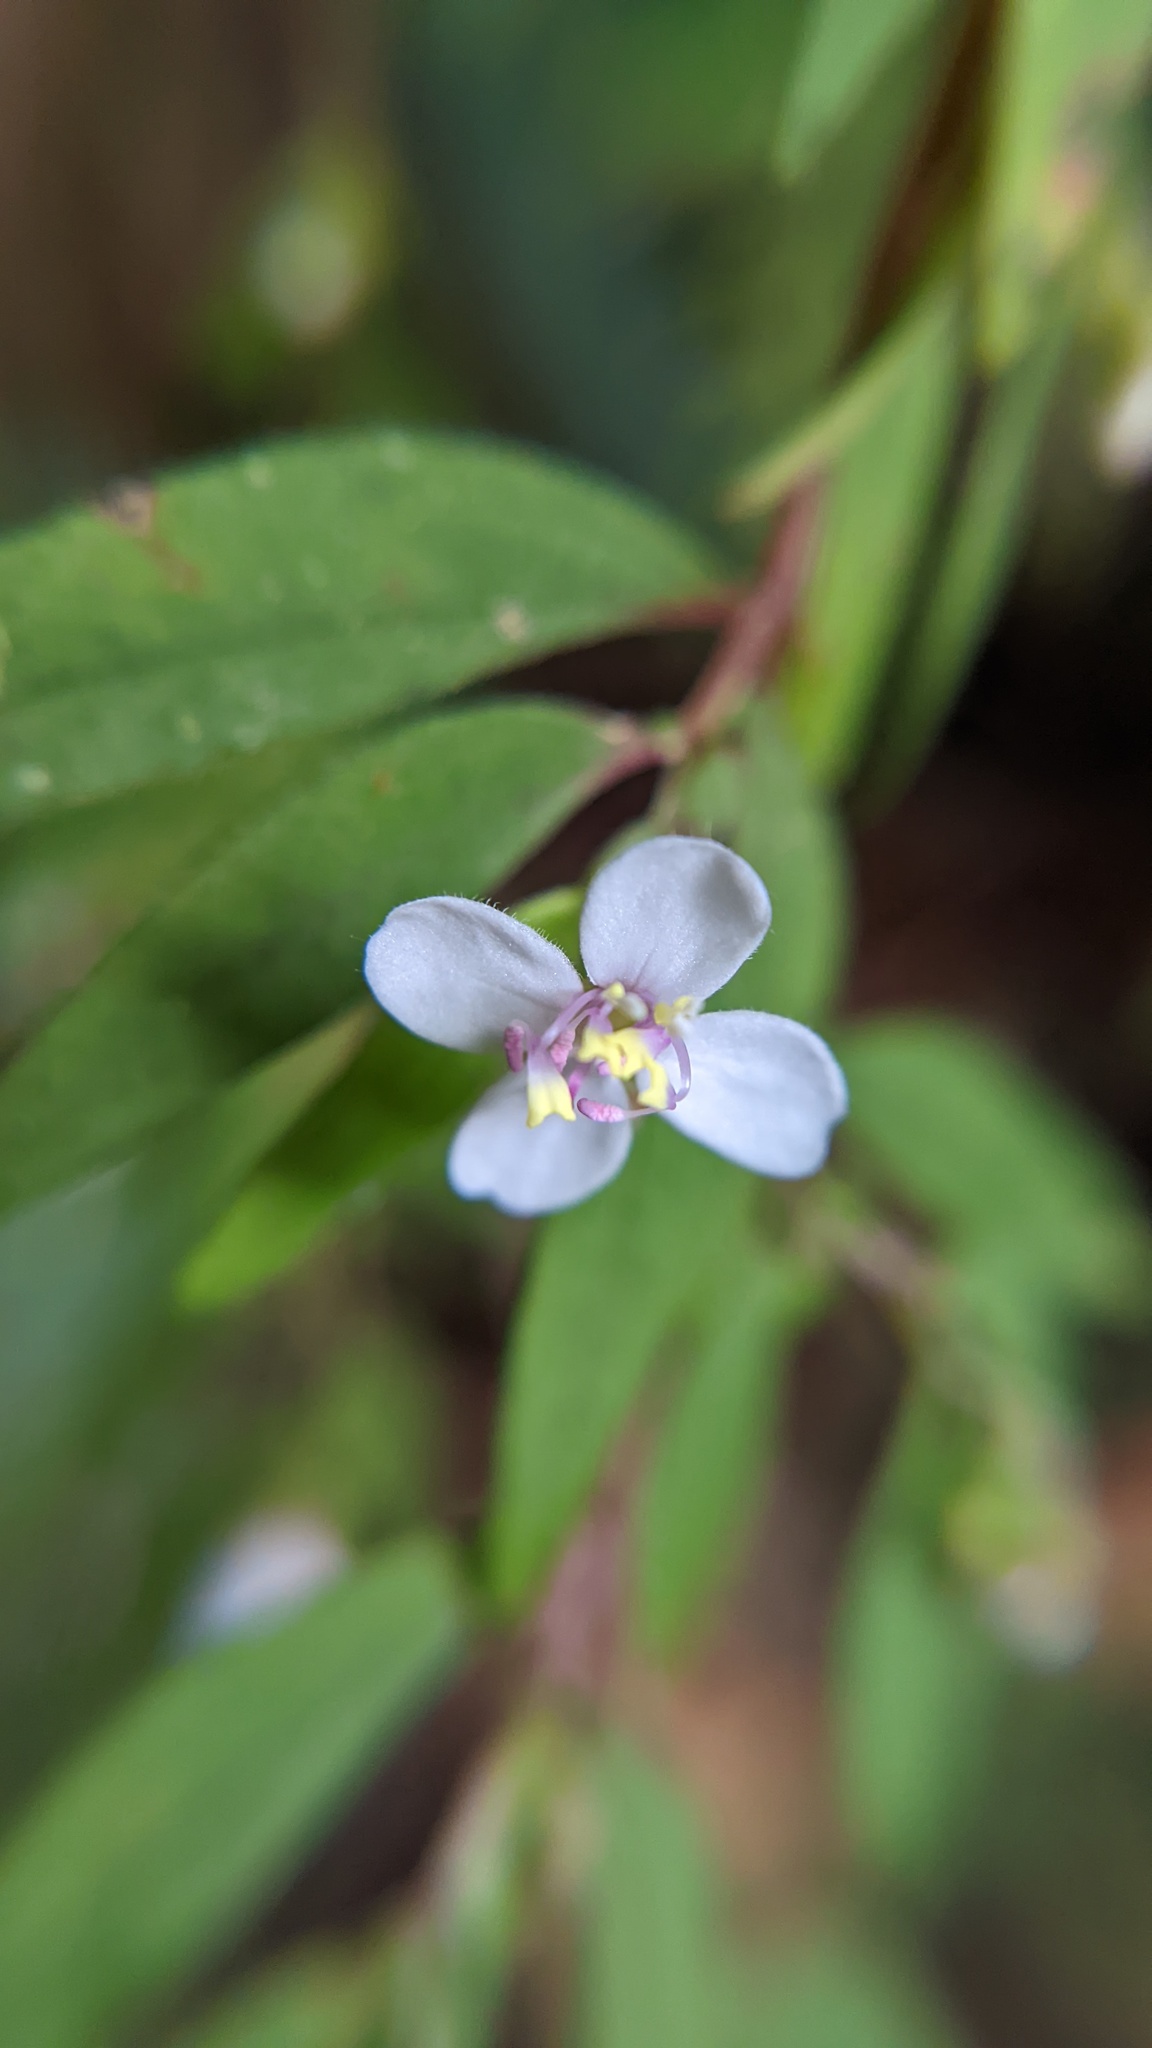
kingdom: Plantae
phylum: Tracheophyta
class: Magnoliopsida
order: Myrtales
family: Melastomataceae
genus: Centradenia
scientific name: Centradenia inaequilateralis
